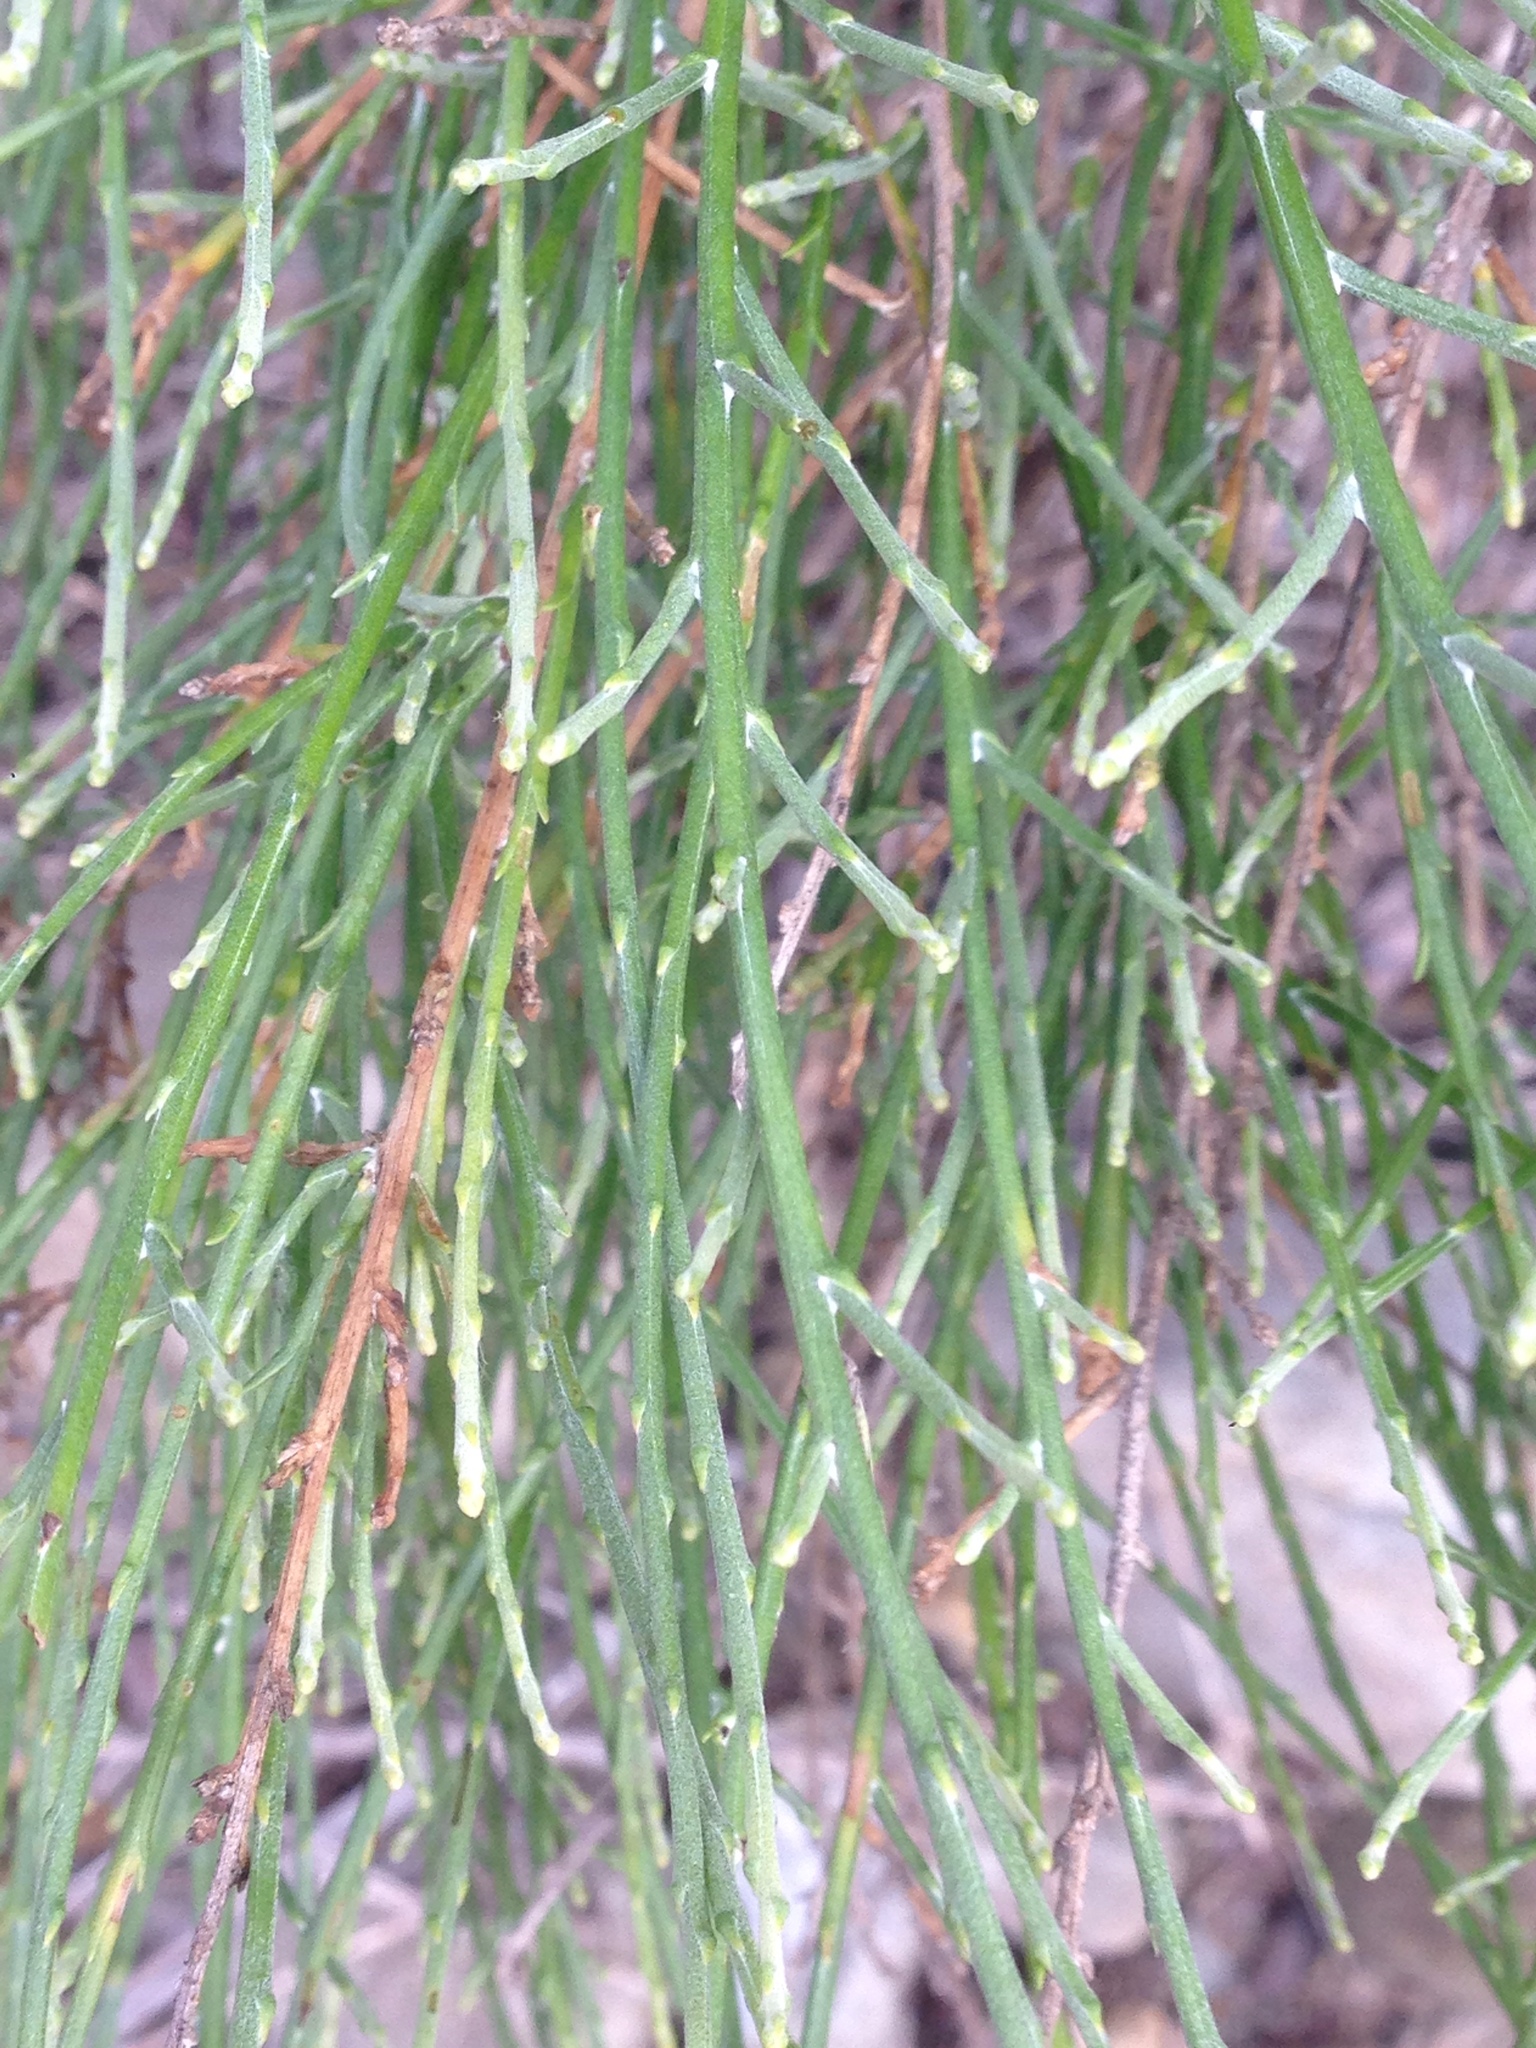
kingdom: Plantae
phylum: Tracheophyta
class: Magnoliopsida
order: Asterales
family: Asteraceae
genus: Lepidospartum
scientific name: Lepidospartum squamatum
